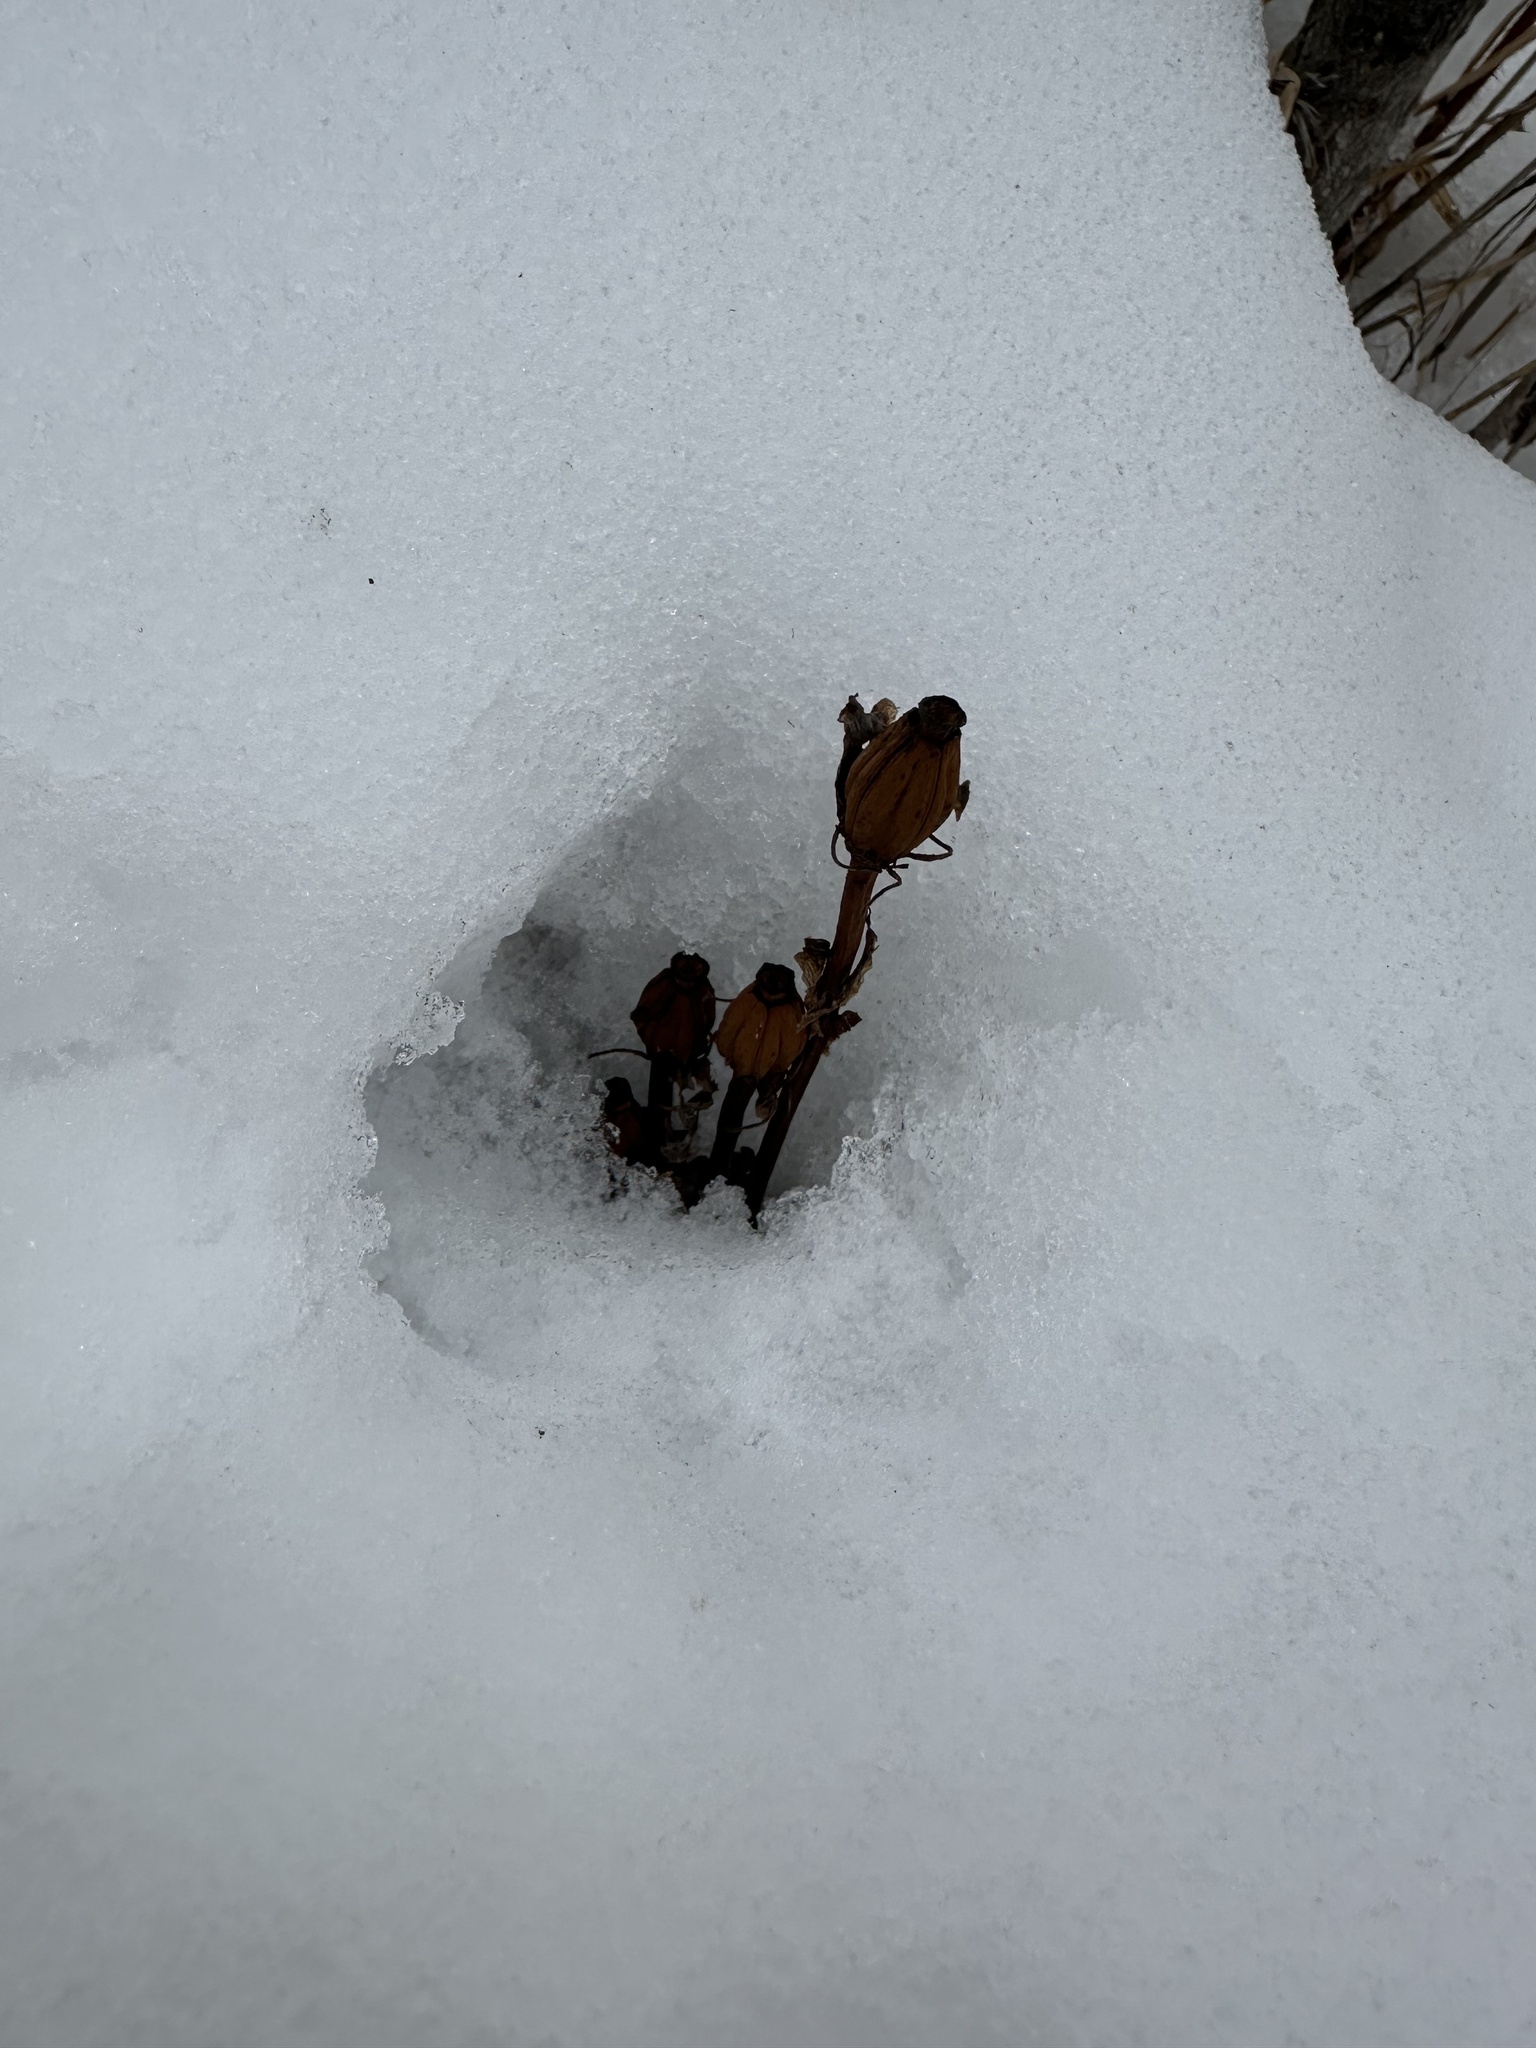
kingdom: Plantae
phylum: Tracheophyta
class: Magnoliopsida
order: Ericales
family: Ericaceae
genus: Monotropa
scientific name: Monotropa uniflora
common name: Convulsion root
